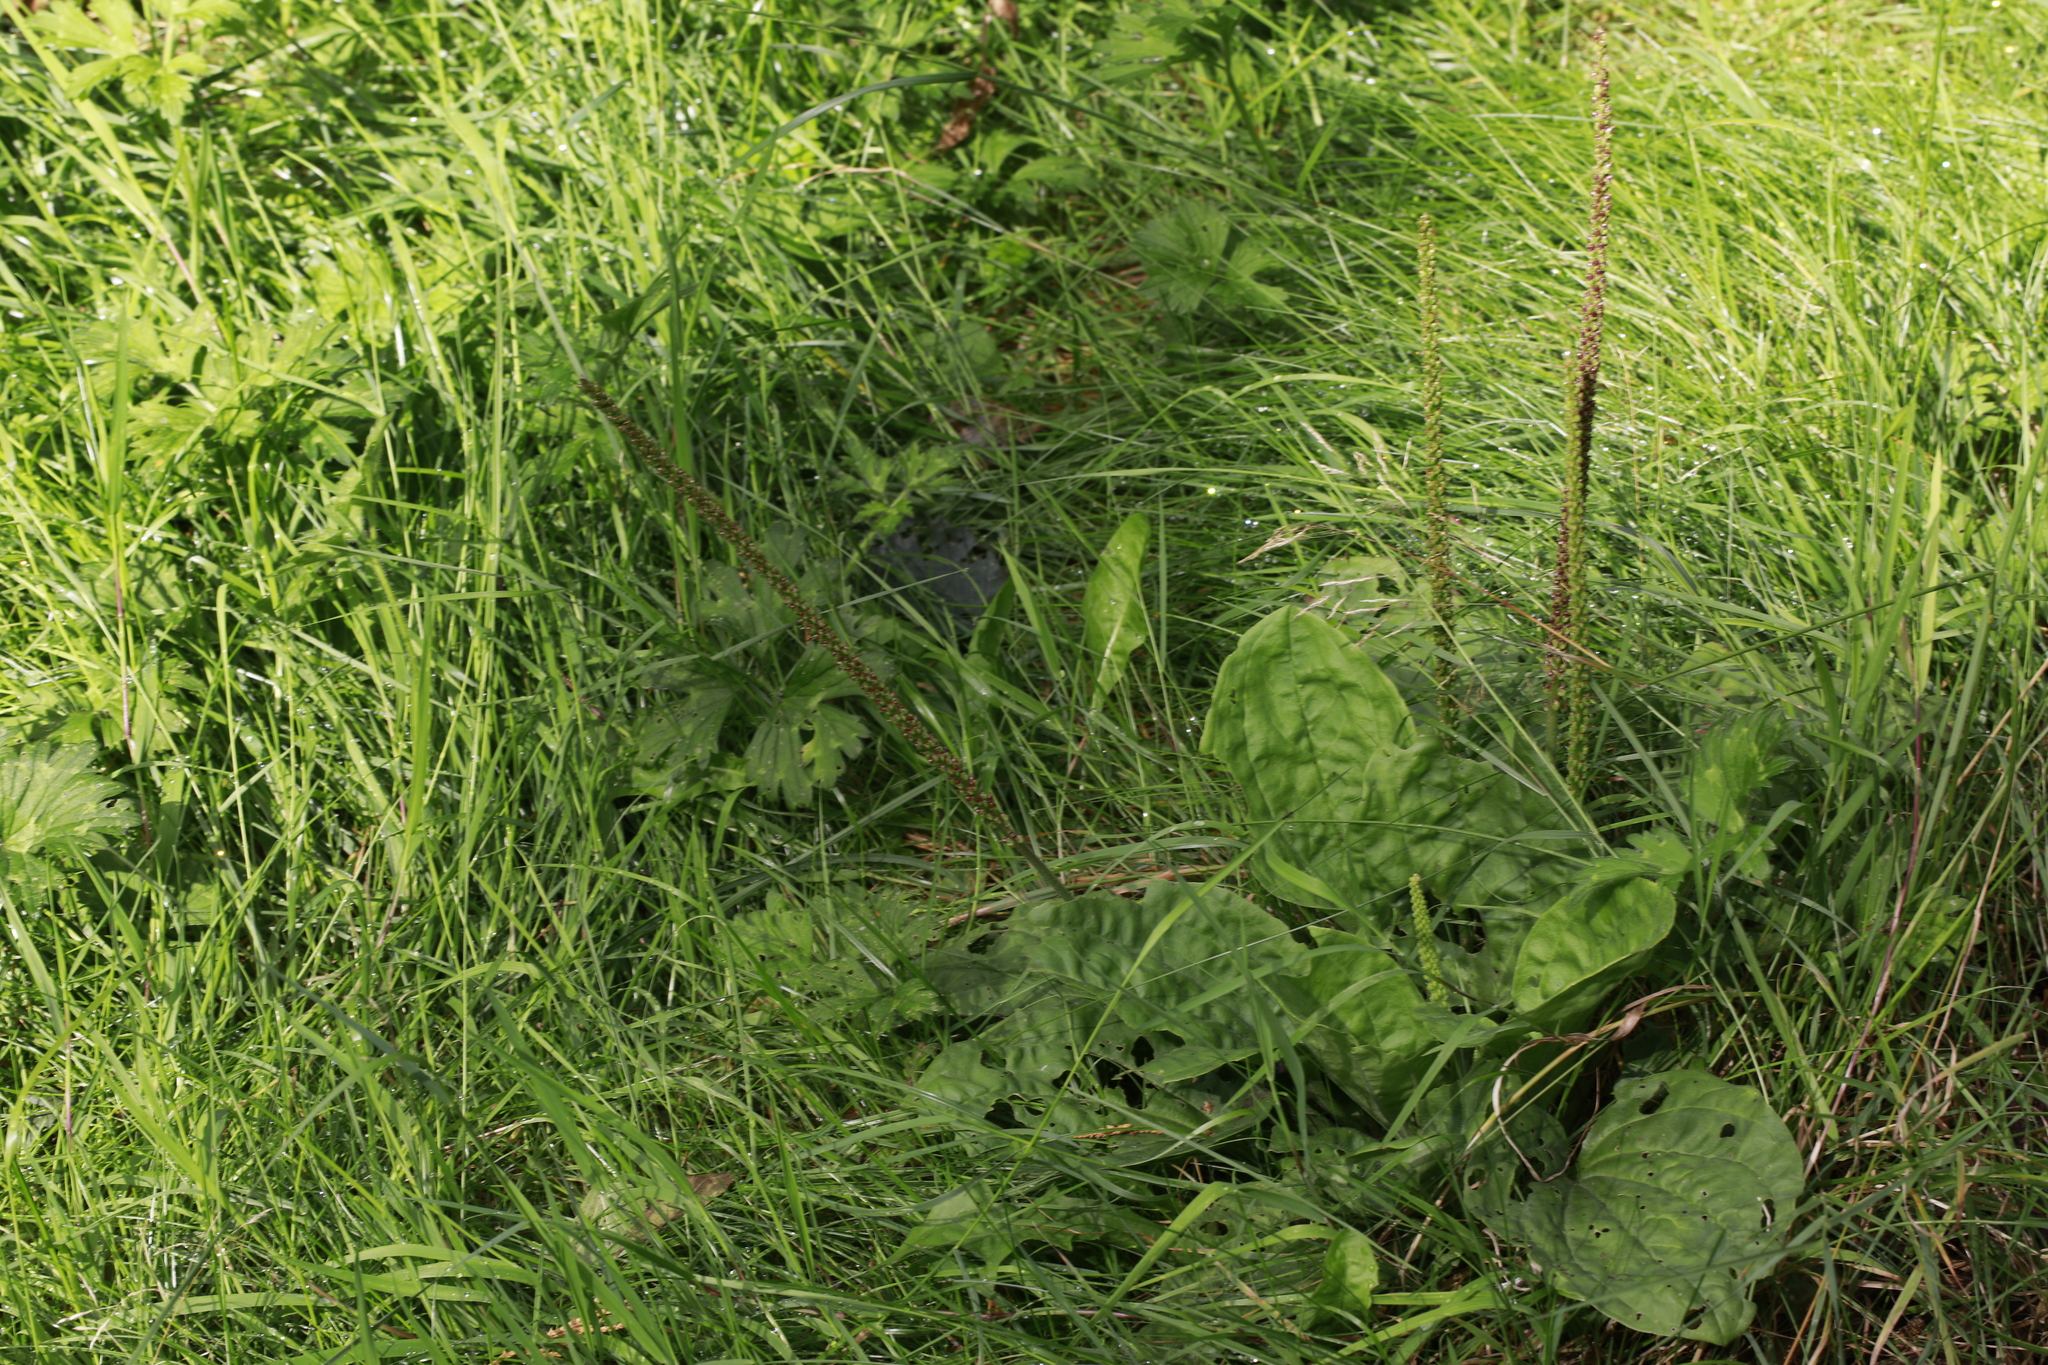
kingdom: Plantae
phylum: Tracheophyta
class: Magnoliopsida
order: Lamiales
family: Plantaginaceae
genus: Plantago
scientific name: Plantago major
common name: Common plantain
